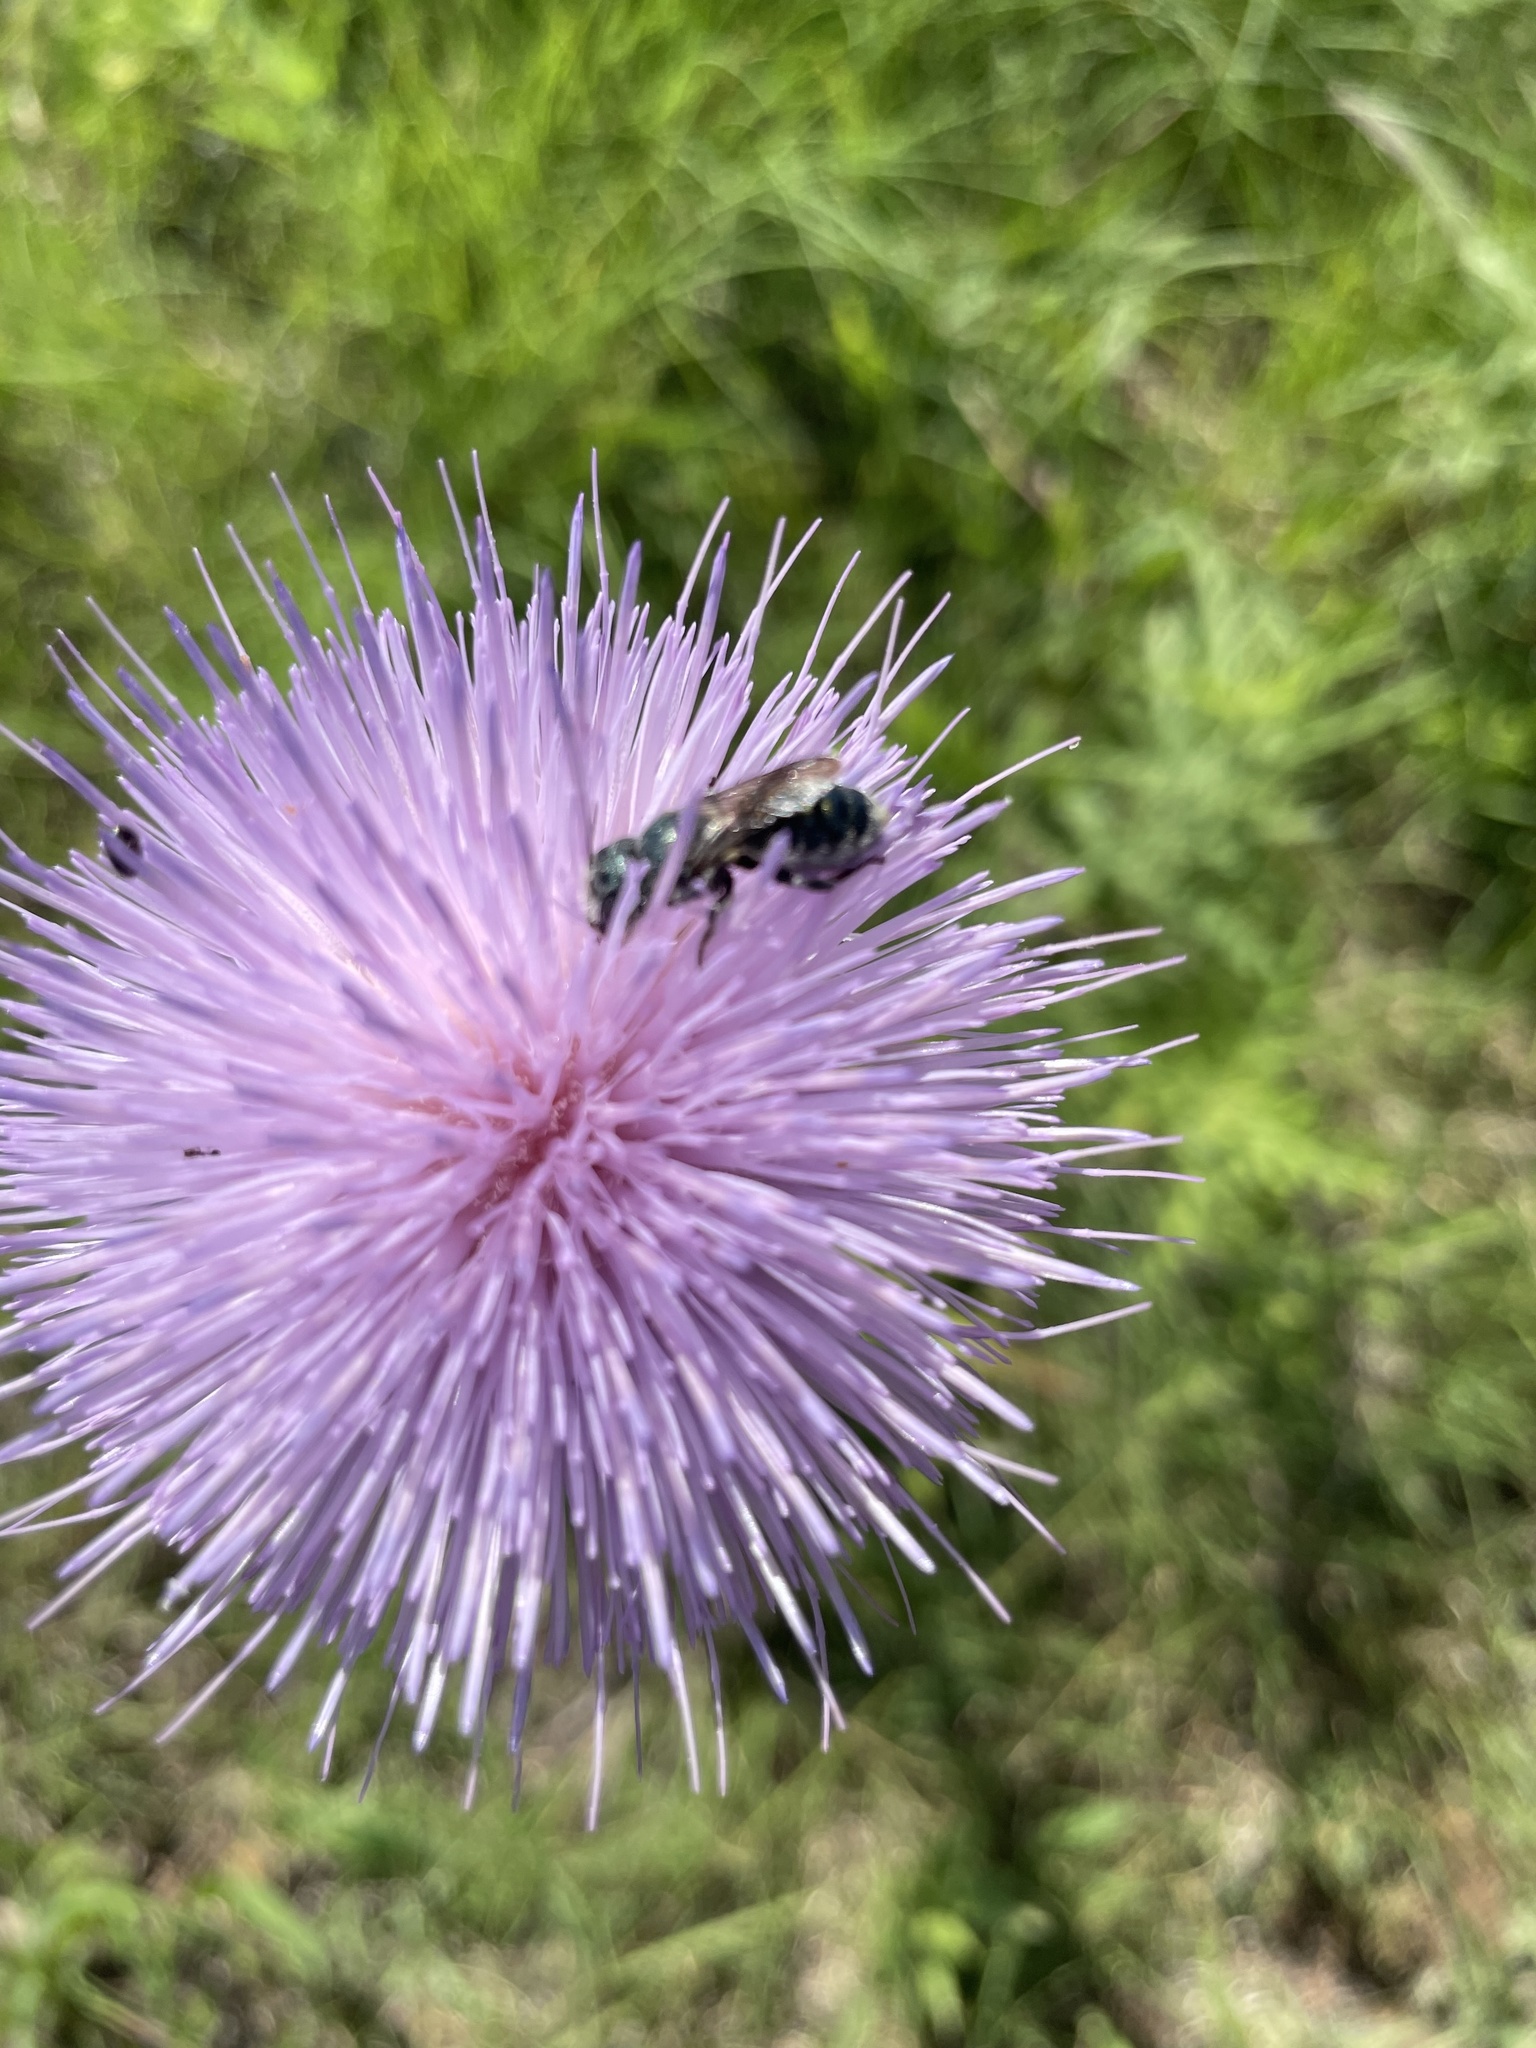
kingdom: Animalia
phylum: Arthropoda
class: Insecta
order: Hymenoptera
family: Megachilidae
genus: Osmia
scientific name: Osmia texana
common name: Texas mason bee
